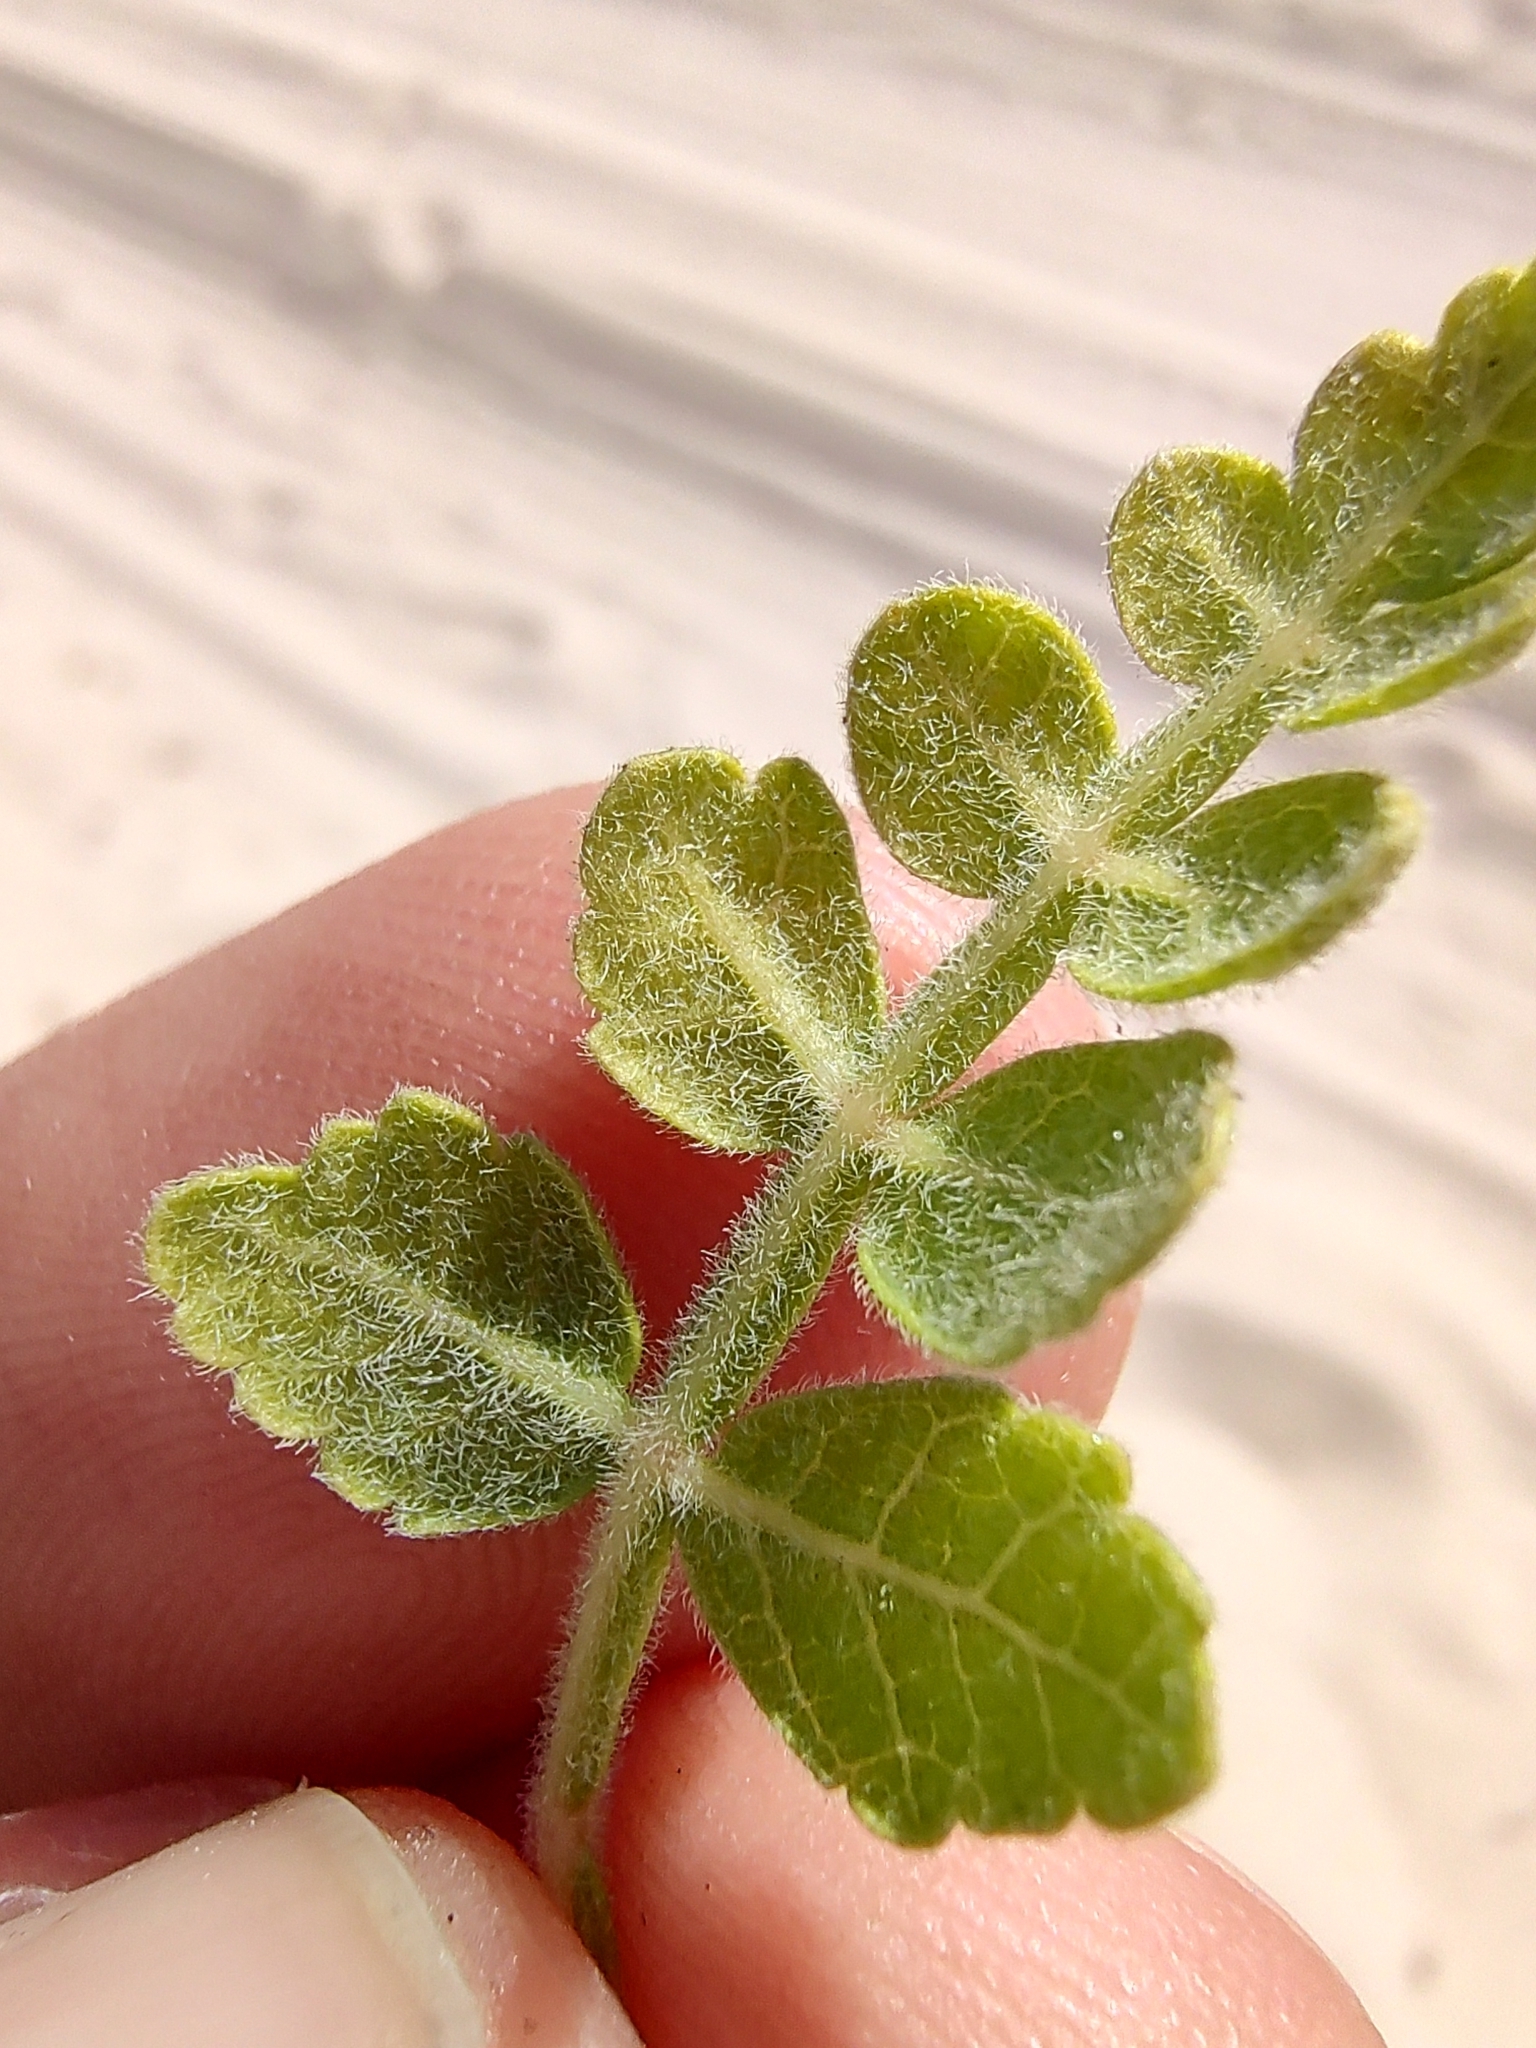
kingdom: Plantae
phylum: Tracheophyta
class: Magnoliopsida
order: Sapindales
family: Burseraceae
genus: Bursera
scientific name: Bursera filicifolia
